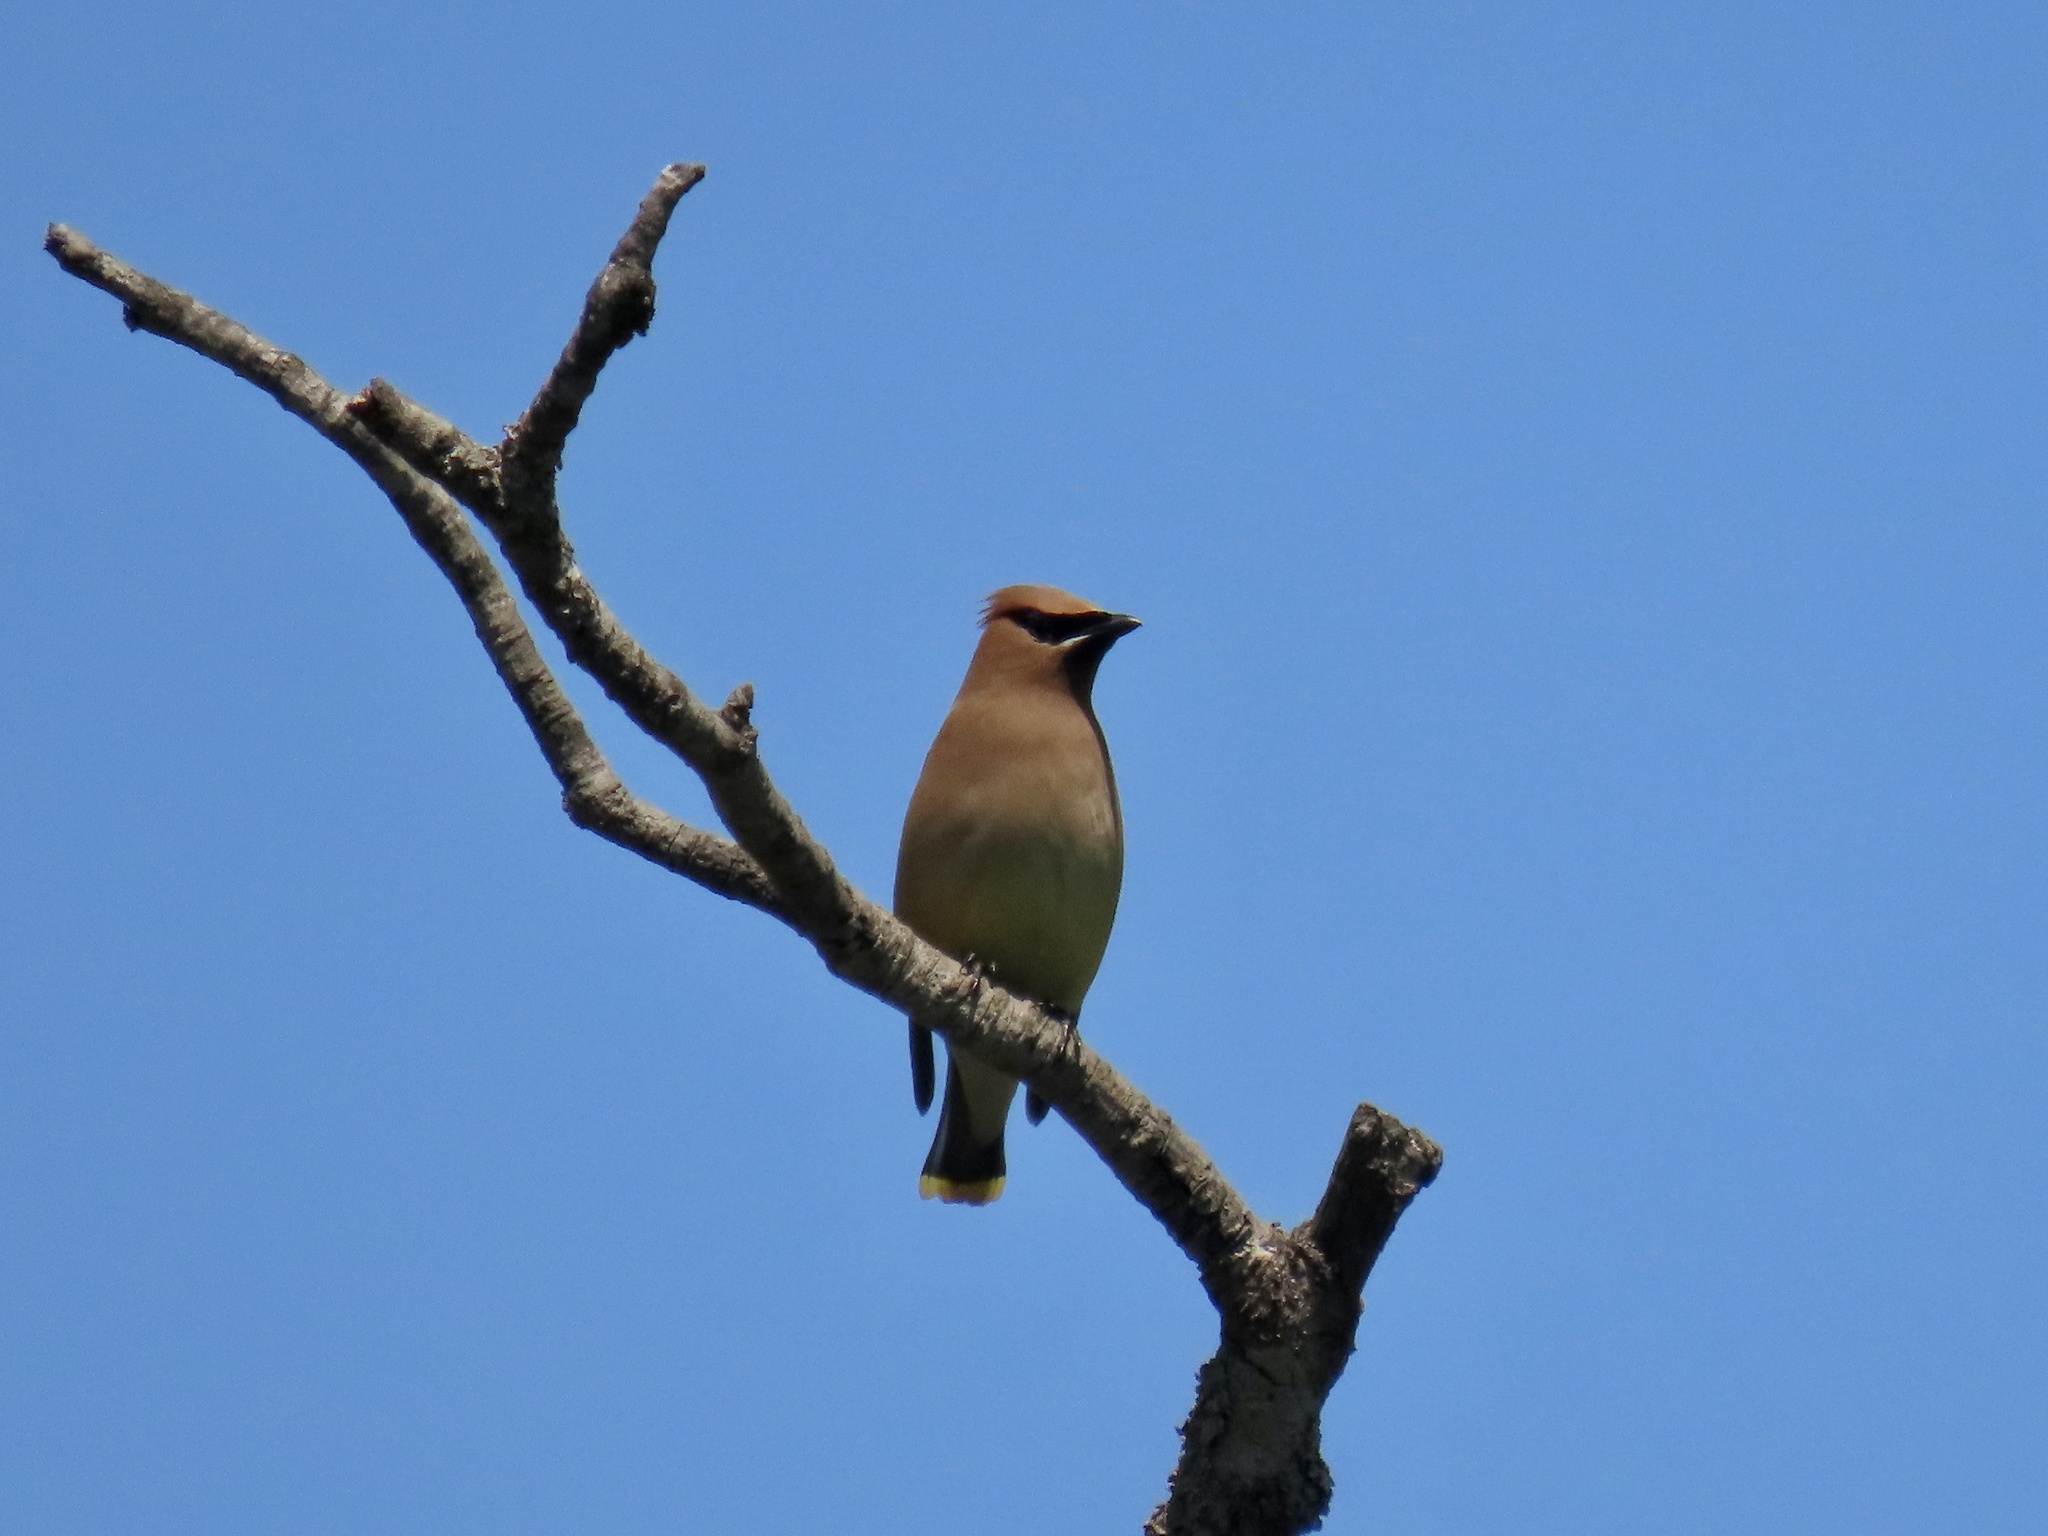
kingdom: Animalia
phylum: Chordata
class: Aves
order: Passeriformes
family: Bombycillidae
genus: Bombycilla
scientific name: Bombycilla cedrorum
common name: Cedar waxwing
